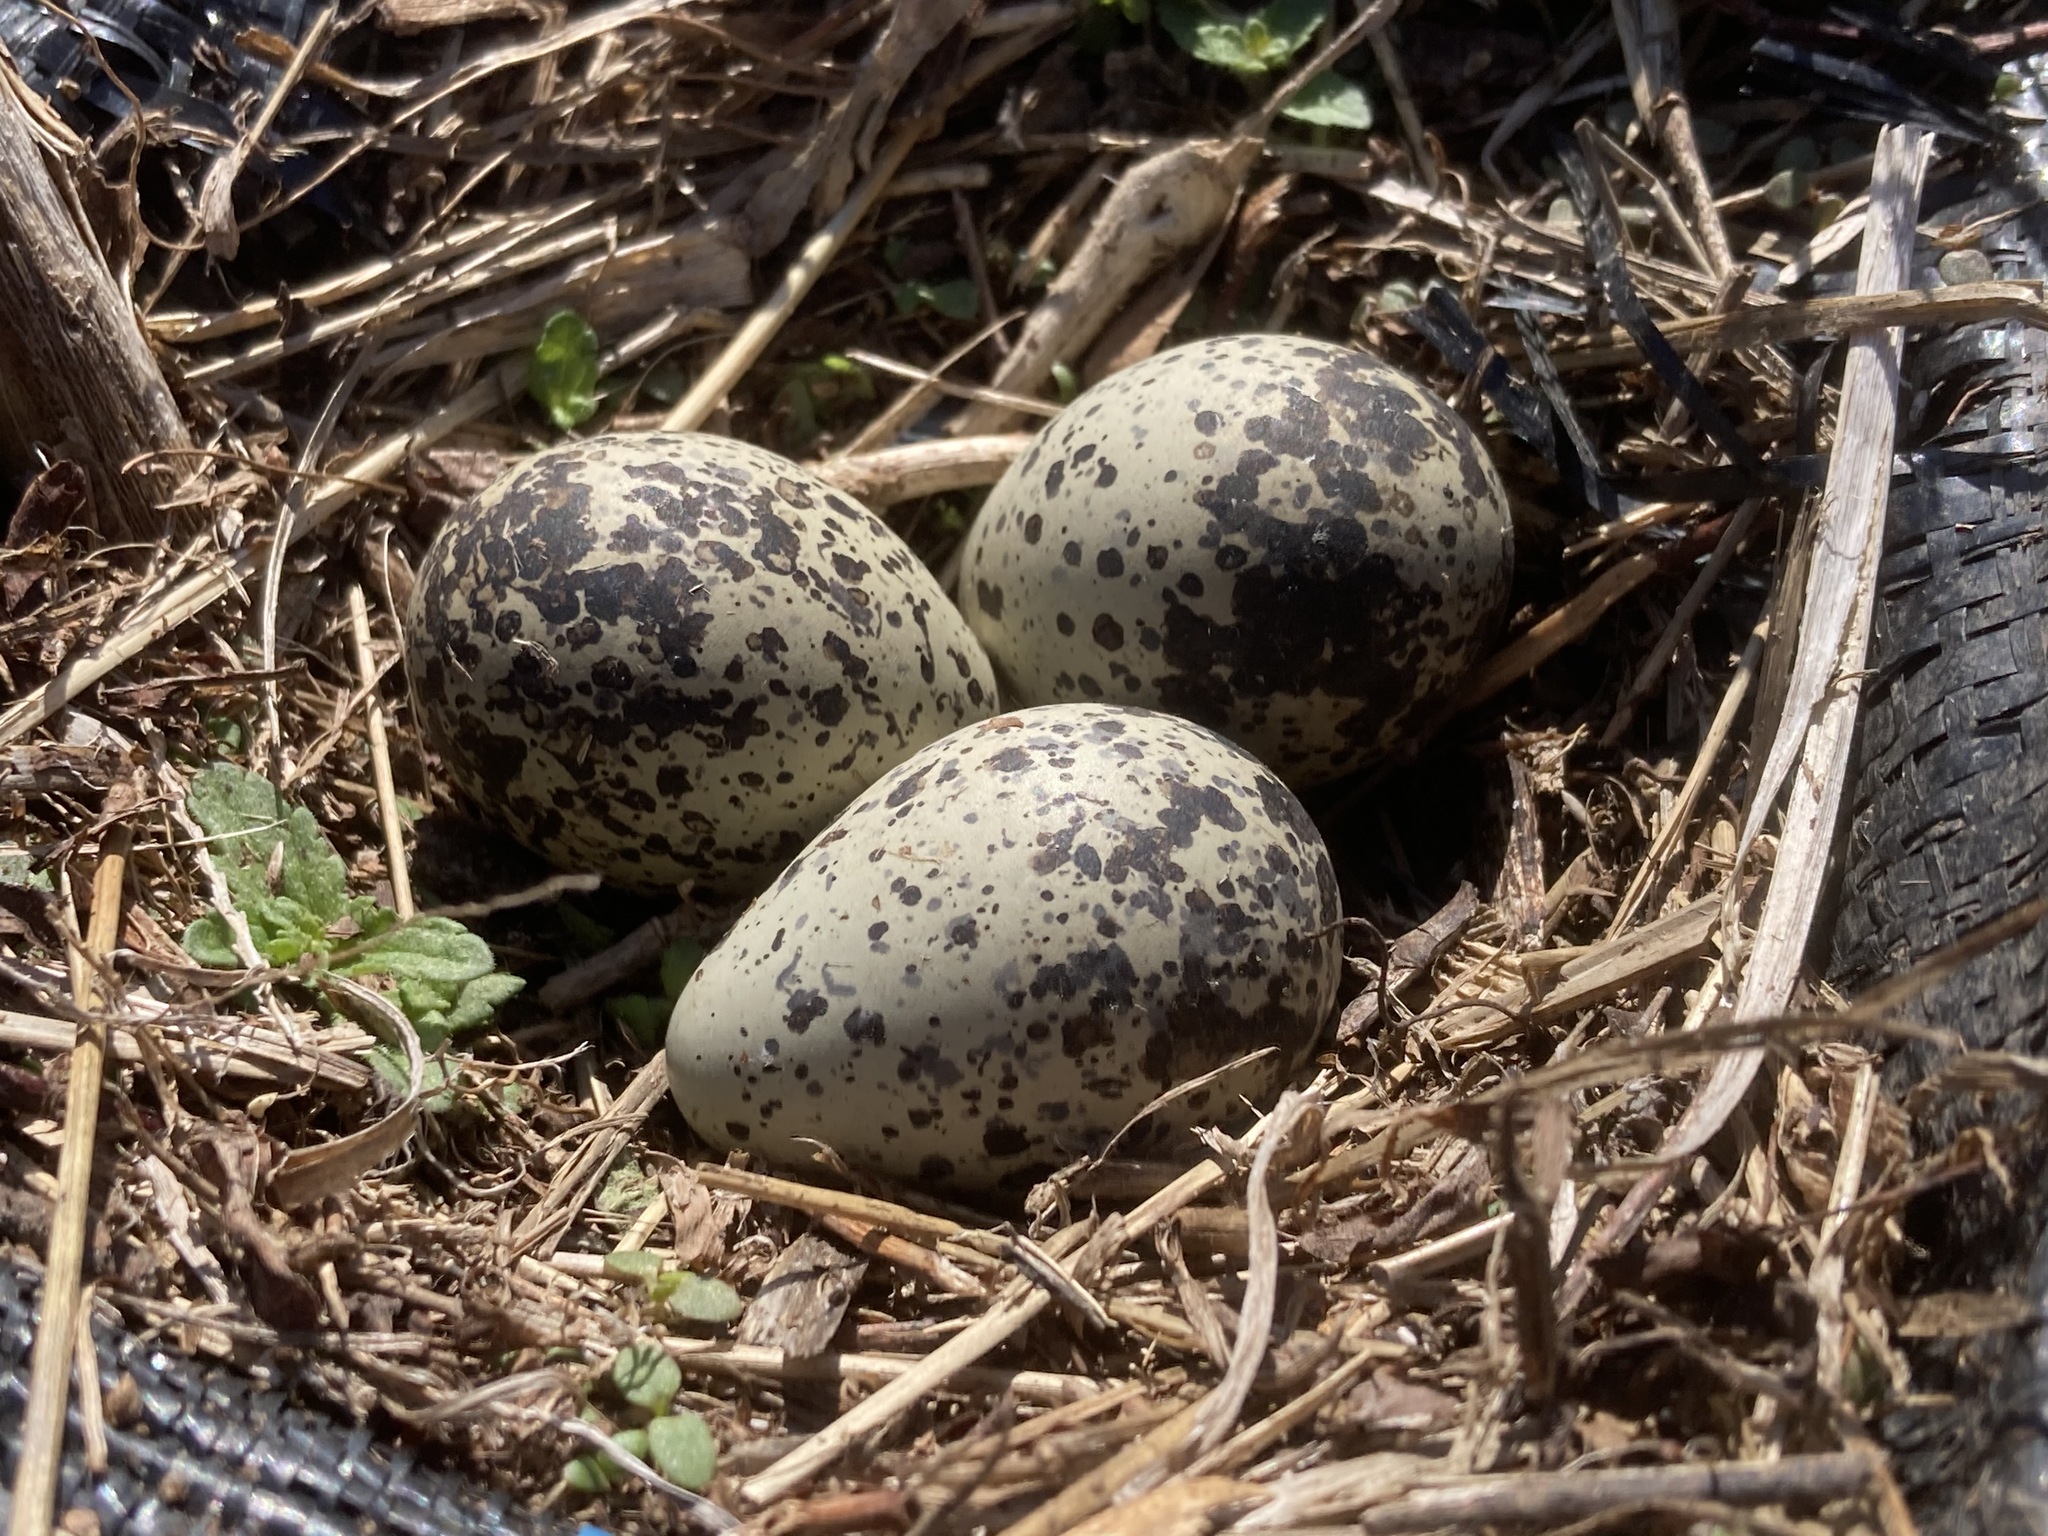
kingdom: Animalia
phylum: Chordata
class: Aves
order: Charadriiformes
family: Charadriidae
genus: Charadrius
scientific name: Charadrius vociferus
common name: Killdeer
